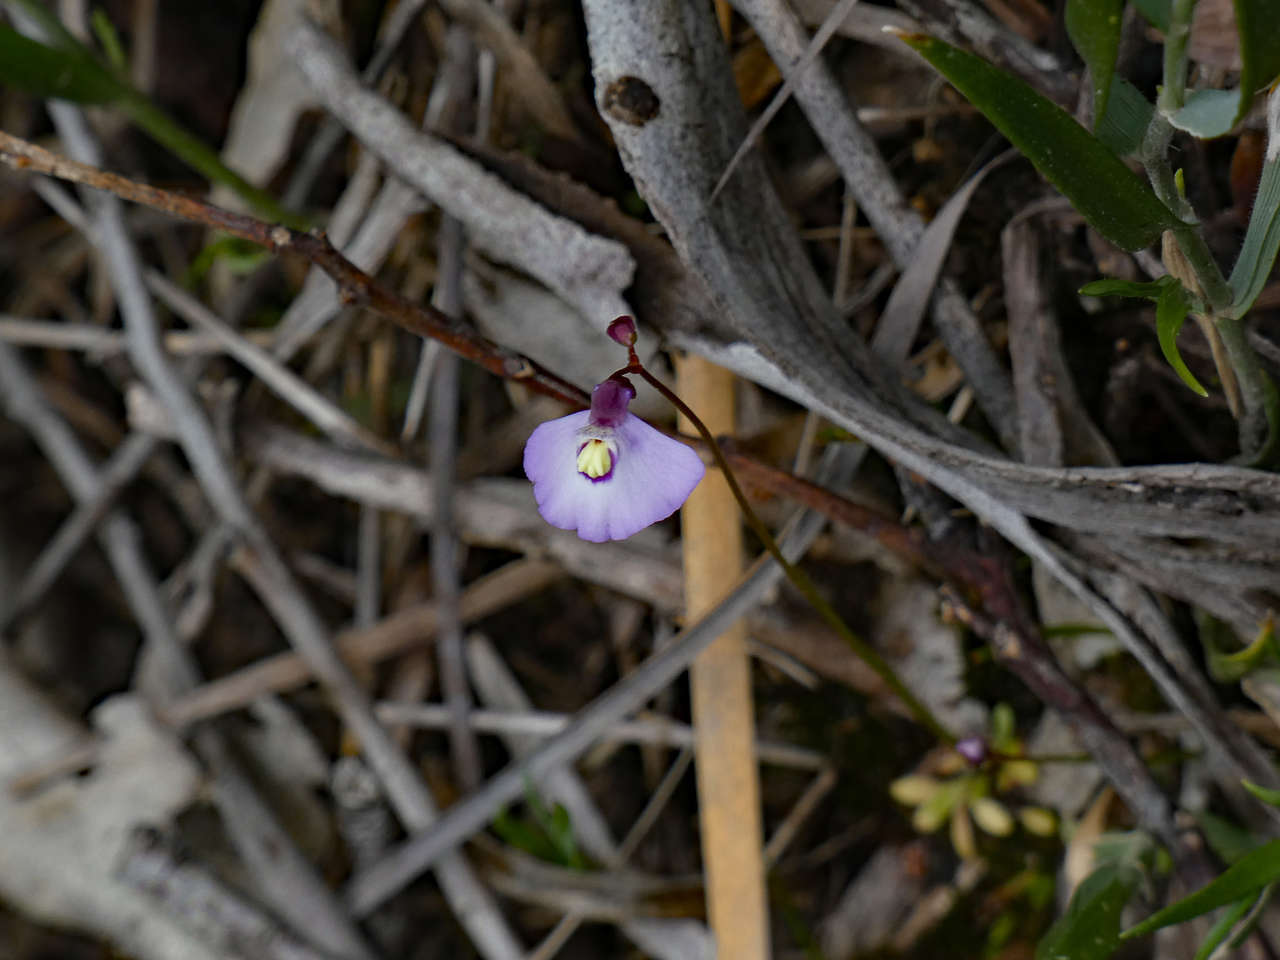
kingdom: Plantae
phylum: Tracheophyta
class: Magnoliopsida
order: Lamiales
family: Lentibulariaceae
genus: Utricularia
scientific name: Utricularia grampiana
